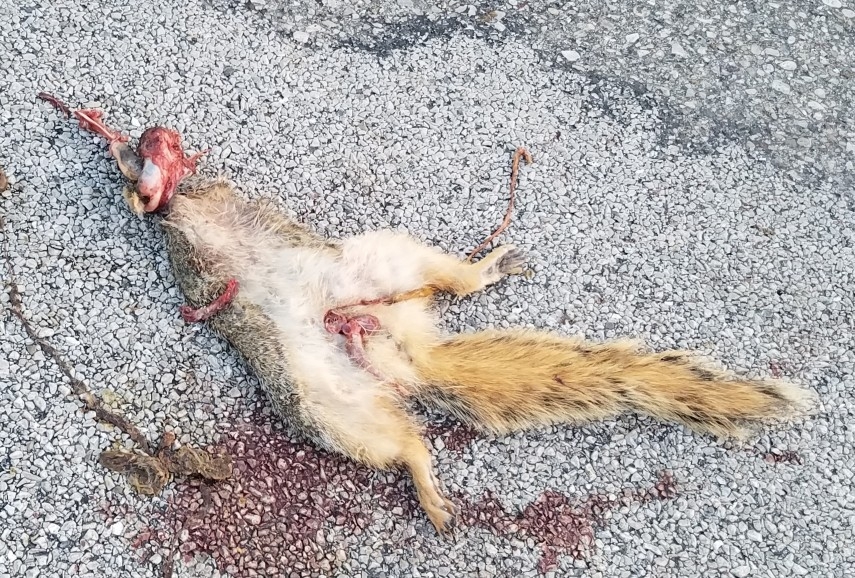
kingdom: Animalia
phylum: Chordata
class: Mammalia
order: Rodentia
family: Sciuridae
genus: Sciurus
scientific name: Sciurus niger
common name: Fox squirrel
